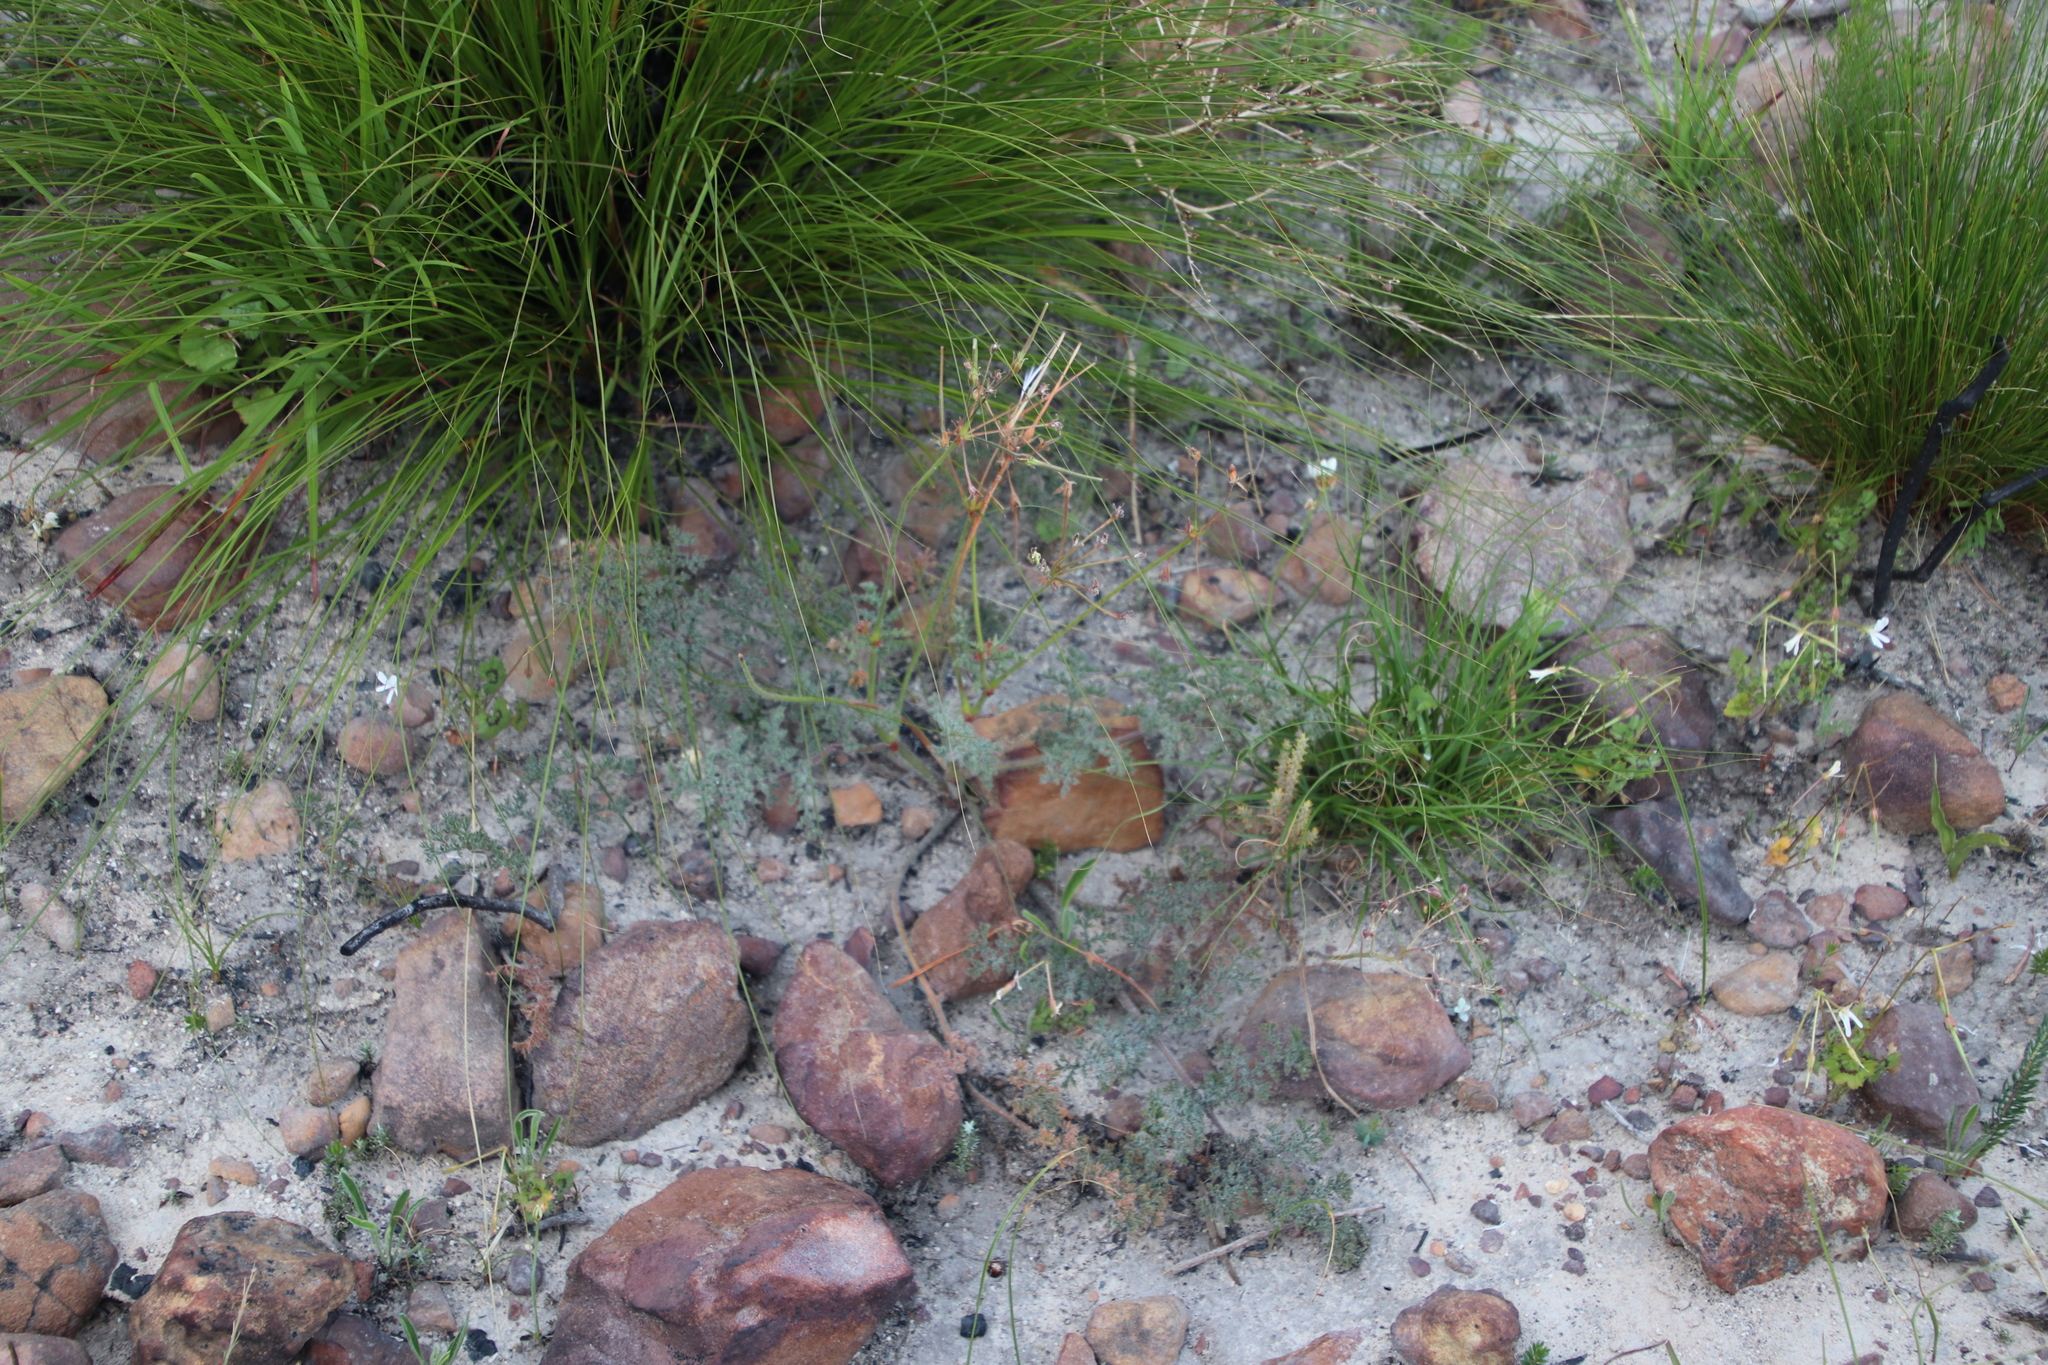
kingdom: Plantae
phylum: Tracheophyta
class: Magnoliopsida
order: Geraniales
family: Geraniaceae
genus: Pelargonium
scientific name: Pelargonium triste
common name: Night-scent pelargonium
